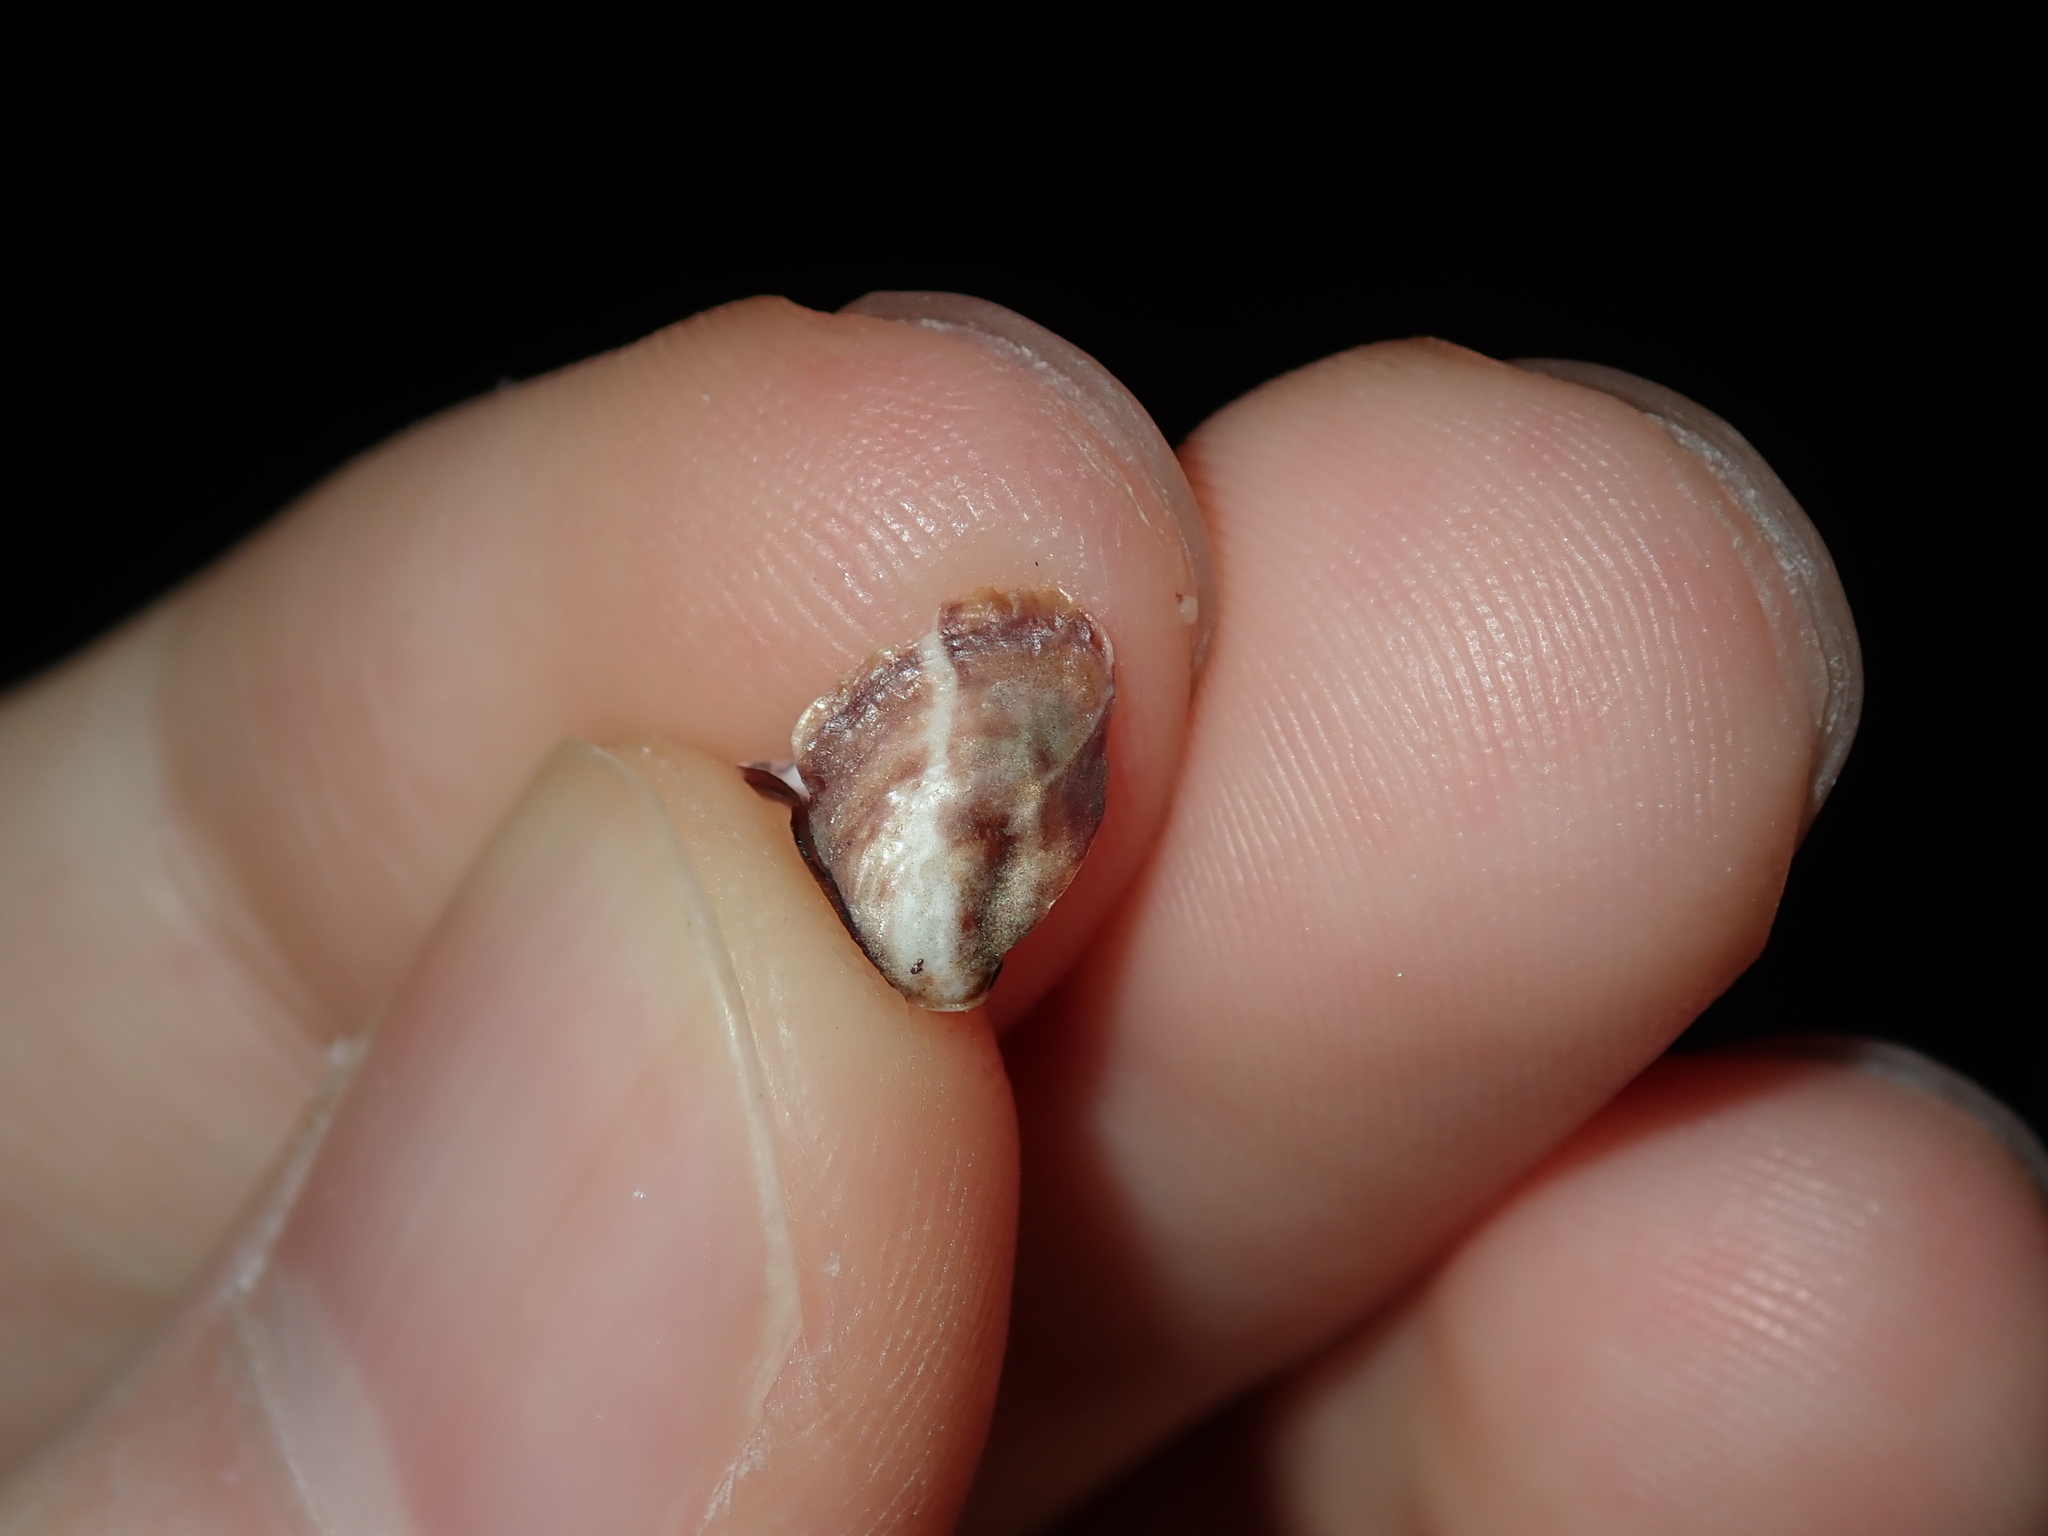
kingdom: Animalia
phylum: Mollusca
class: Bivalvia
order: Ostreida
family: Ostreidae
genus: Saccostrea
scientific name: Saccostrea glomerata
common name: Sydney cupped oyster
